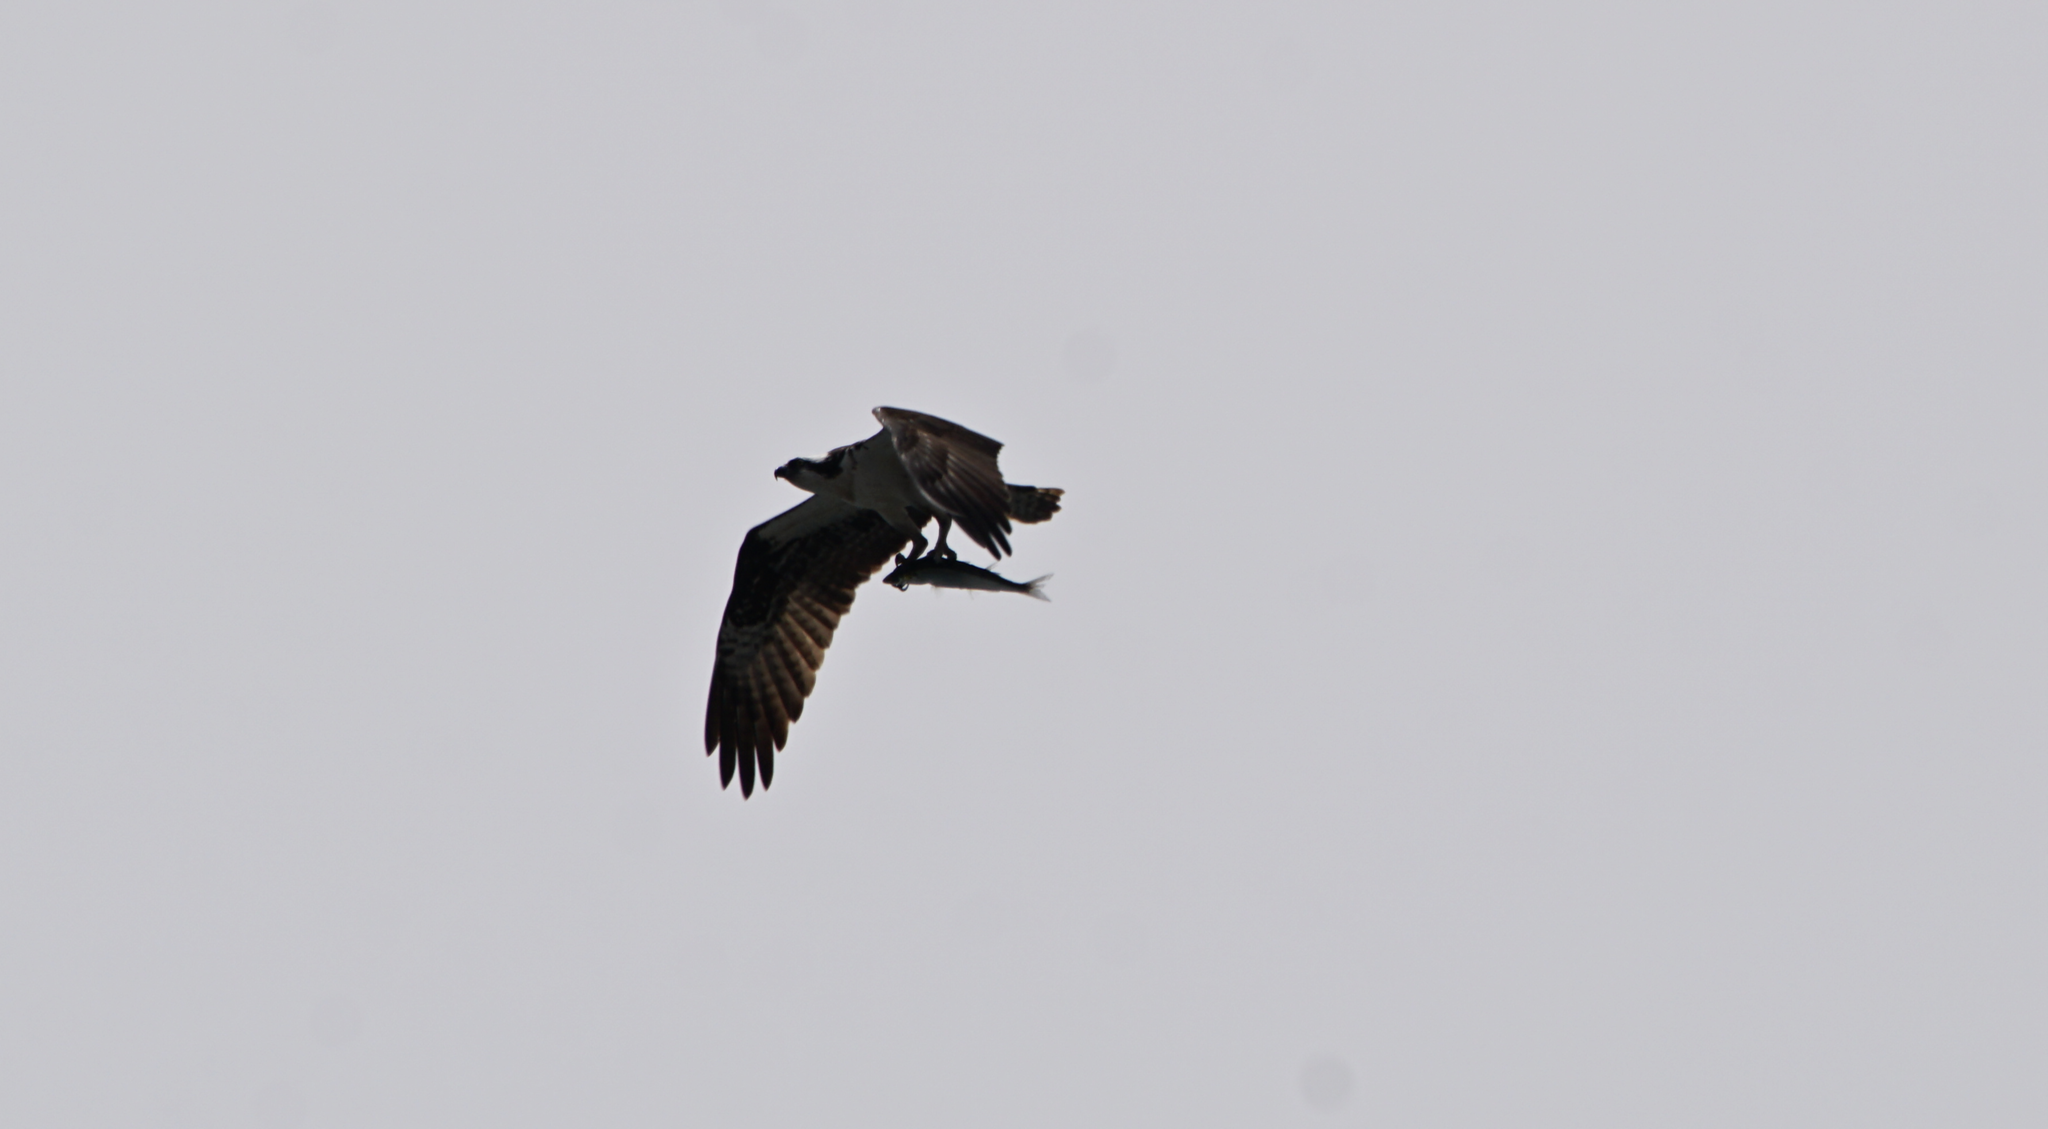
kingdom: Animalia
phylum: Chordata
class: Aves
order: Accipitriformes
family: Pandionidae
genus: Pandion
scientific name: Pandion haliaetus
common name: Osprey
